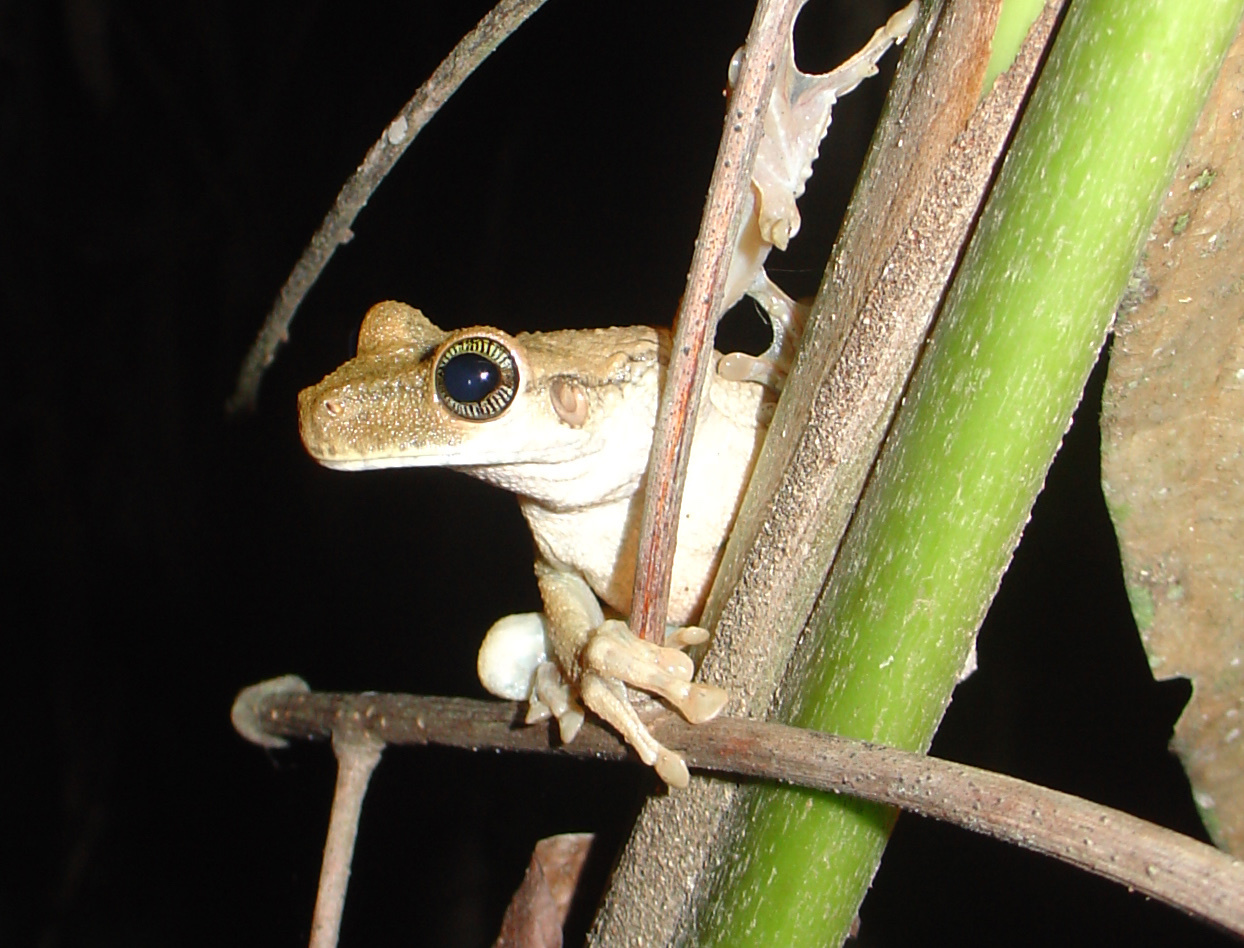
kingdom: Animalia
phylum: Chordata
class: Amphibia
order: Anura
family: Hylidae
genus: Osteocephalus
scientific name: Osteocephalus taurinus
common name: Manaus slender-legged treefrog
